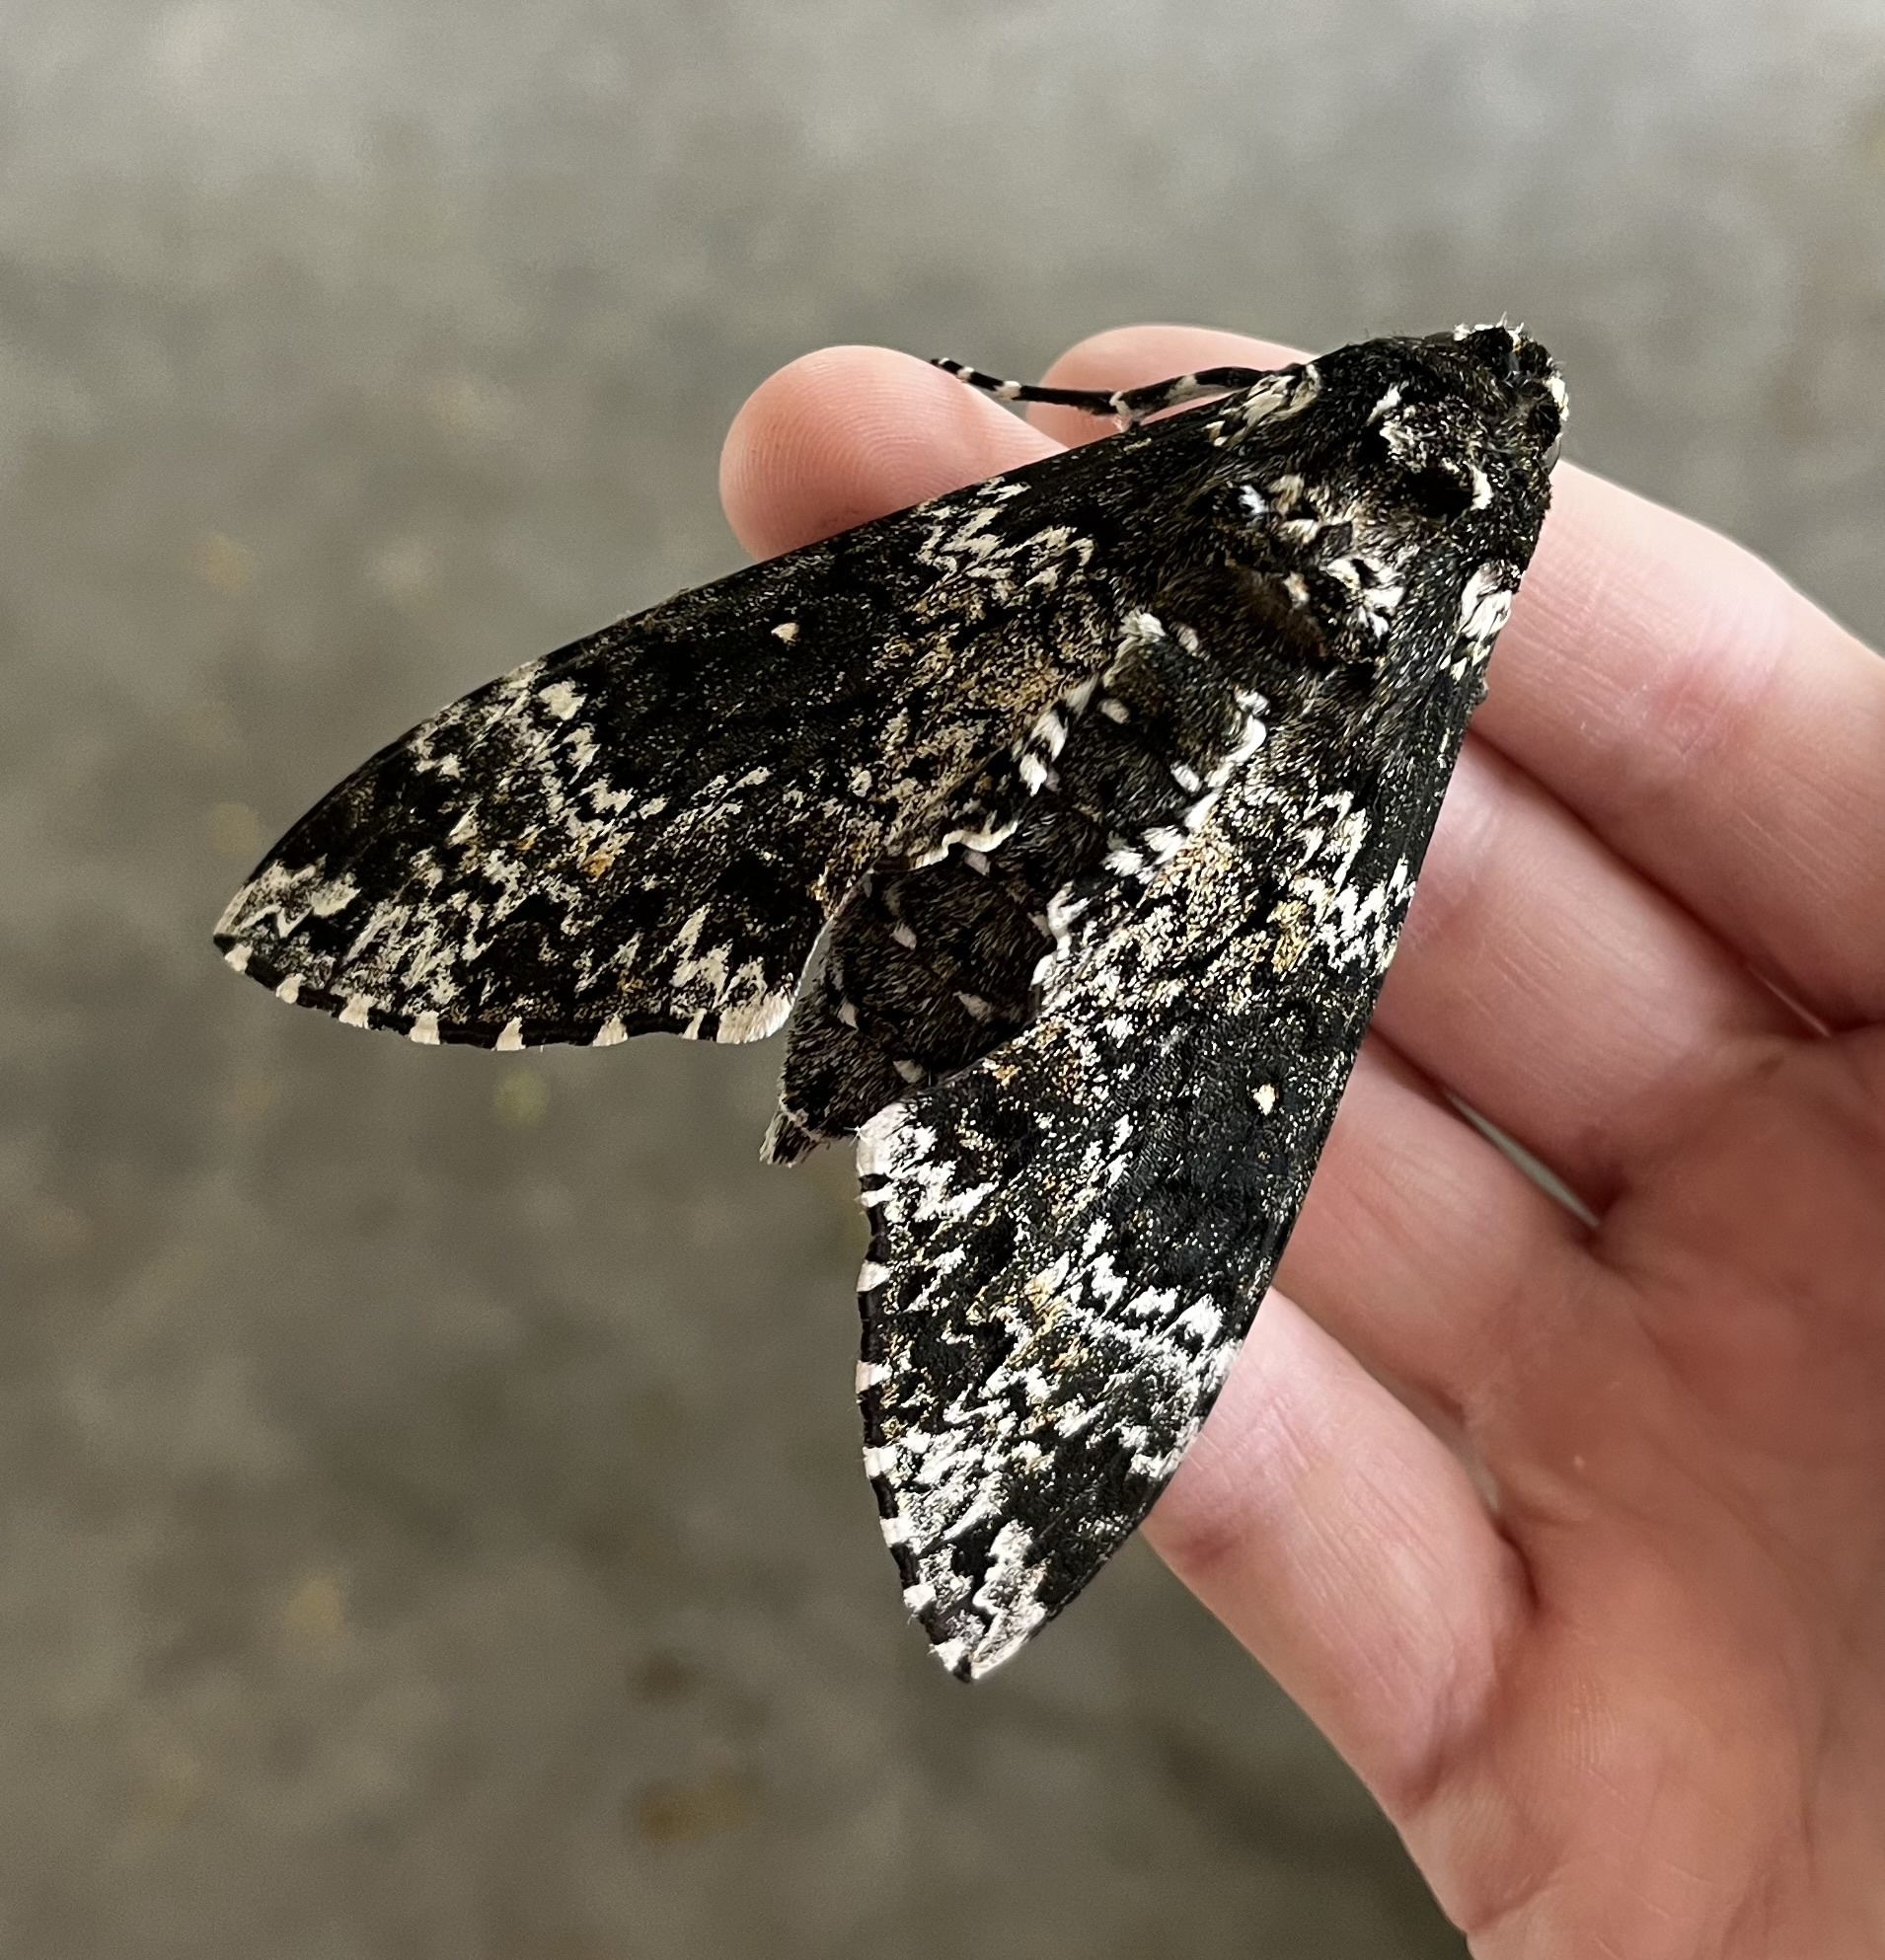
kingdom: Animalia
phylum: Arthropoda
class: Insecta
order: Lepidoptera
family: Sphingidae
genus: Manduca
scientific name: Manduca rustica
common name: Rustic sphinx
